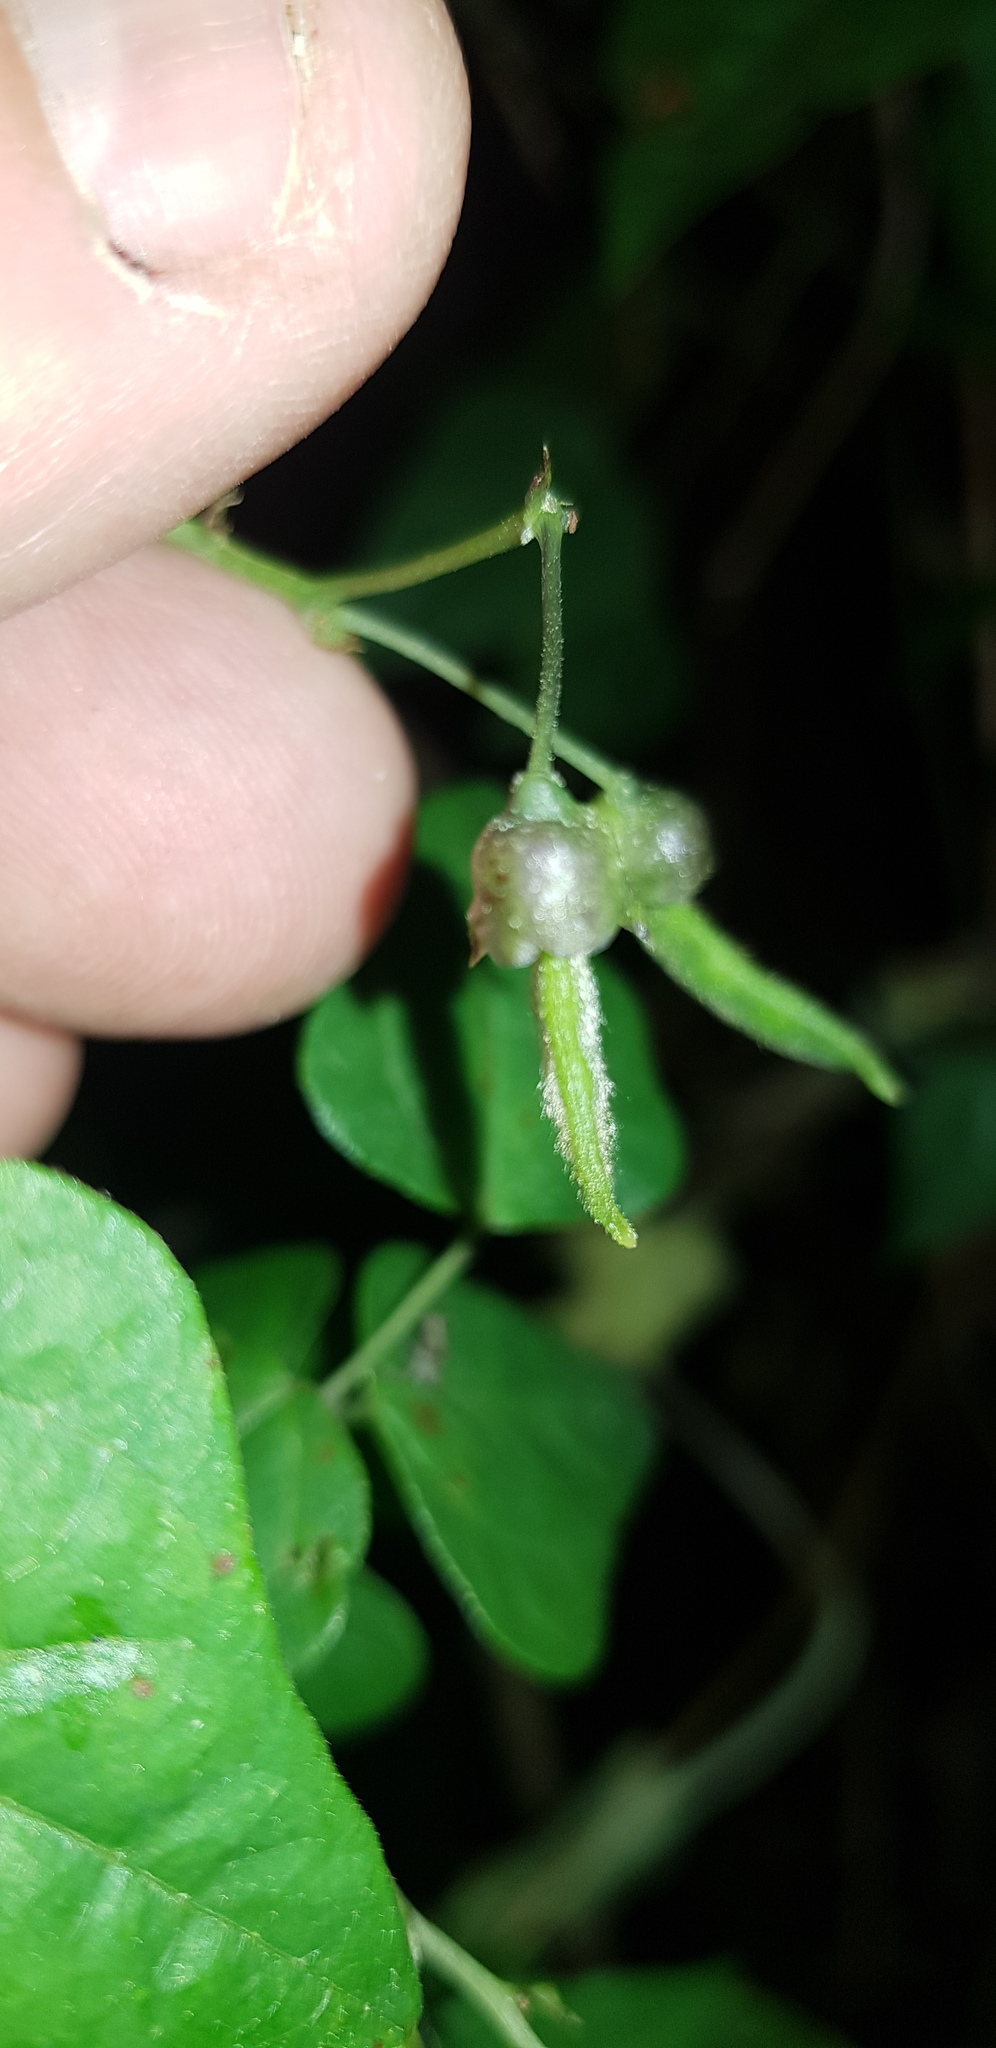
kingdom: Plantae
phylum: Tracheophyta
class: Magnoliopsida
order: Fabales
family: Fabaceae
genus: Phaseolus
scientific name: Phaseolus vulgaris
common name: Bean
